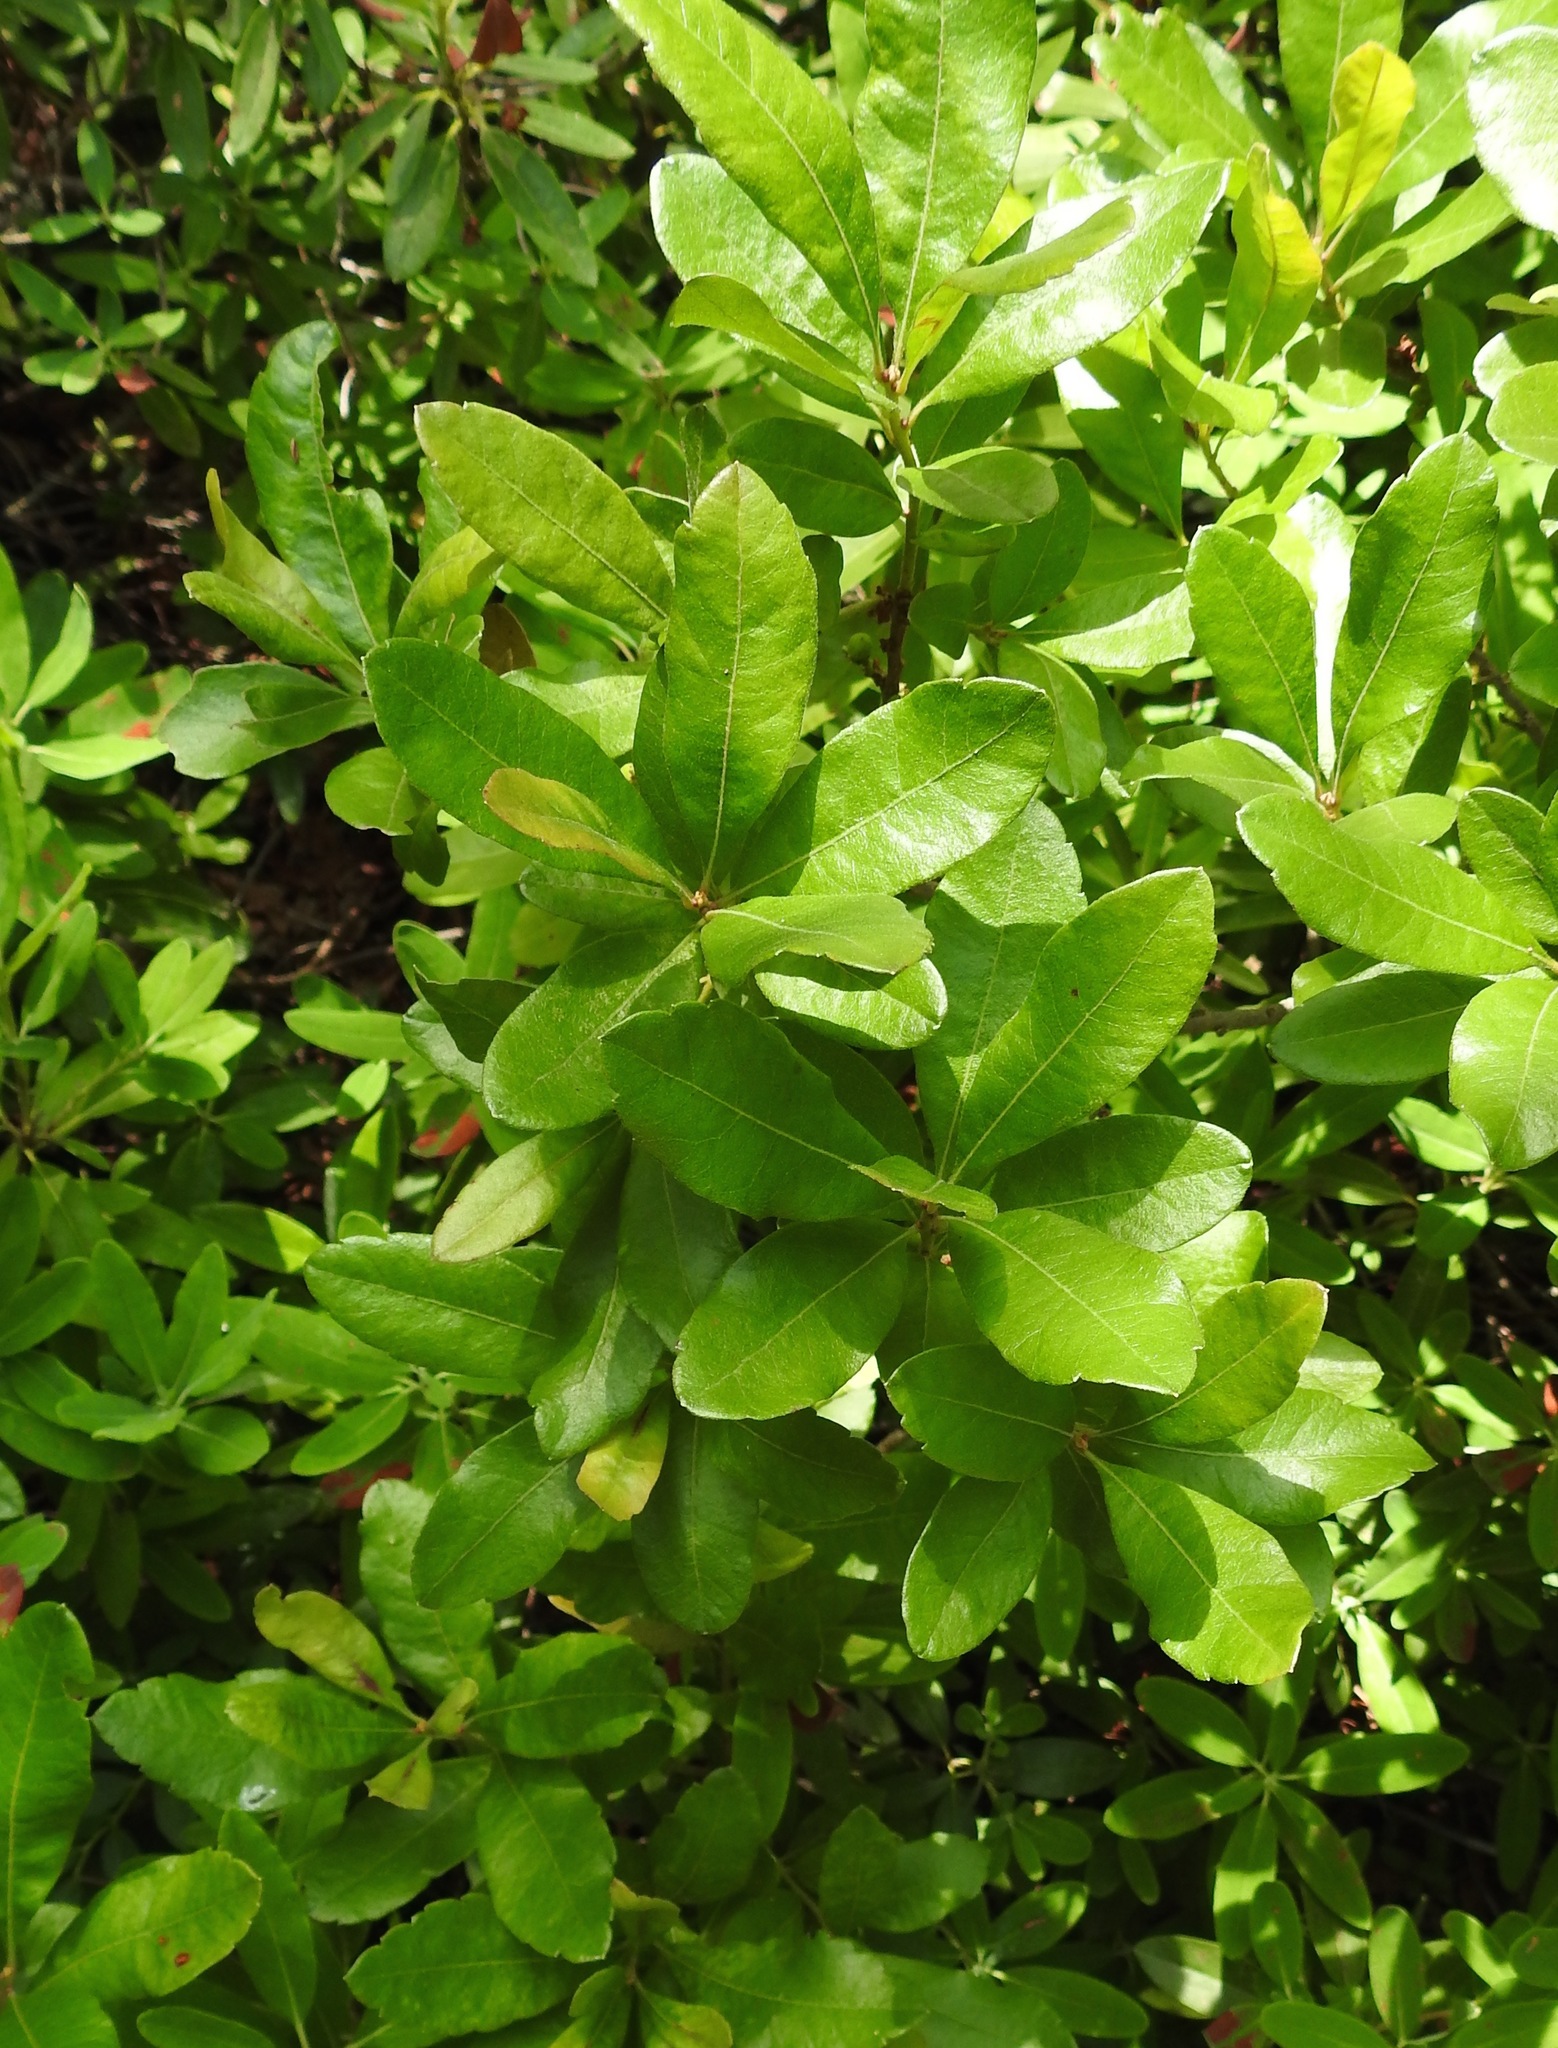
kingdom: Plantae
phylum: Tracheophyta
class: Magnoliopsida
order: Fagales
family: Myricaceae
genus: Morella
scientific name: Morella pensylvanica
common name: Northern bayberry
